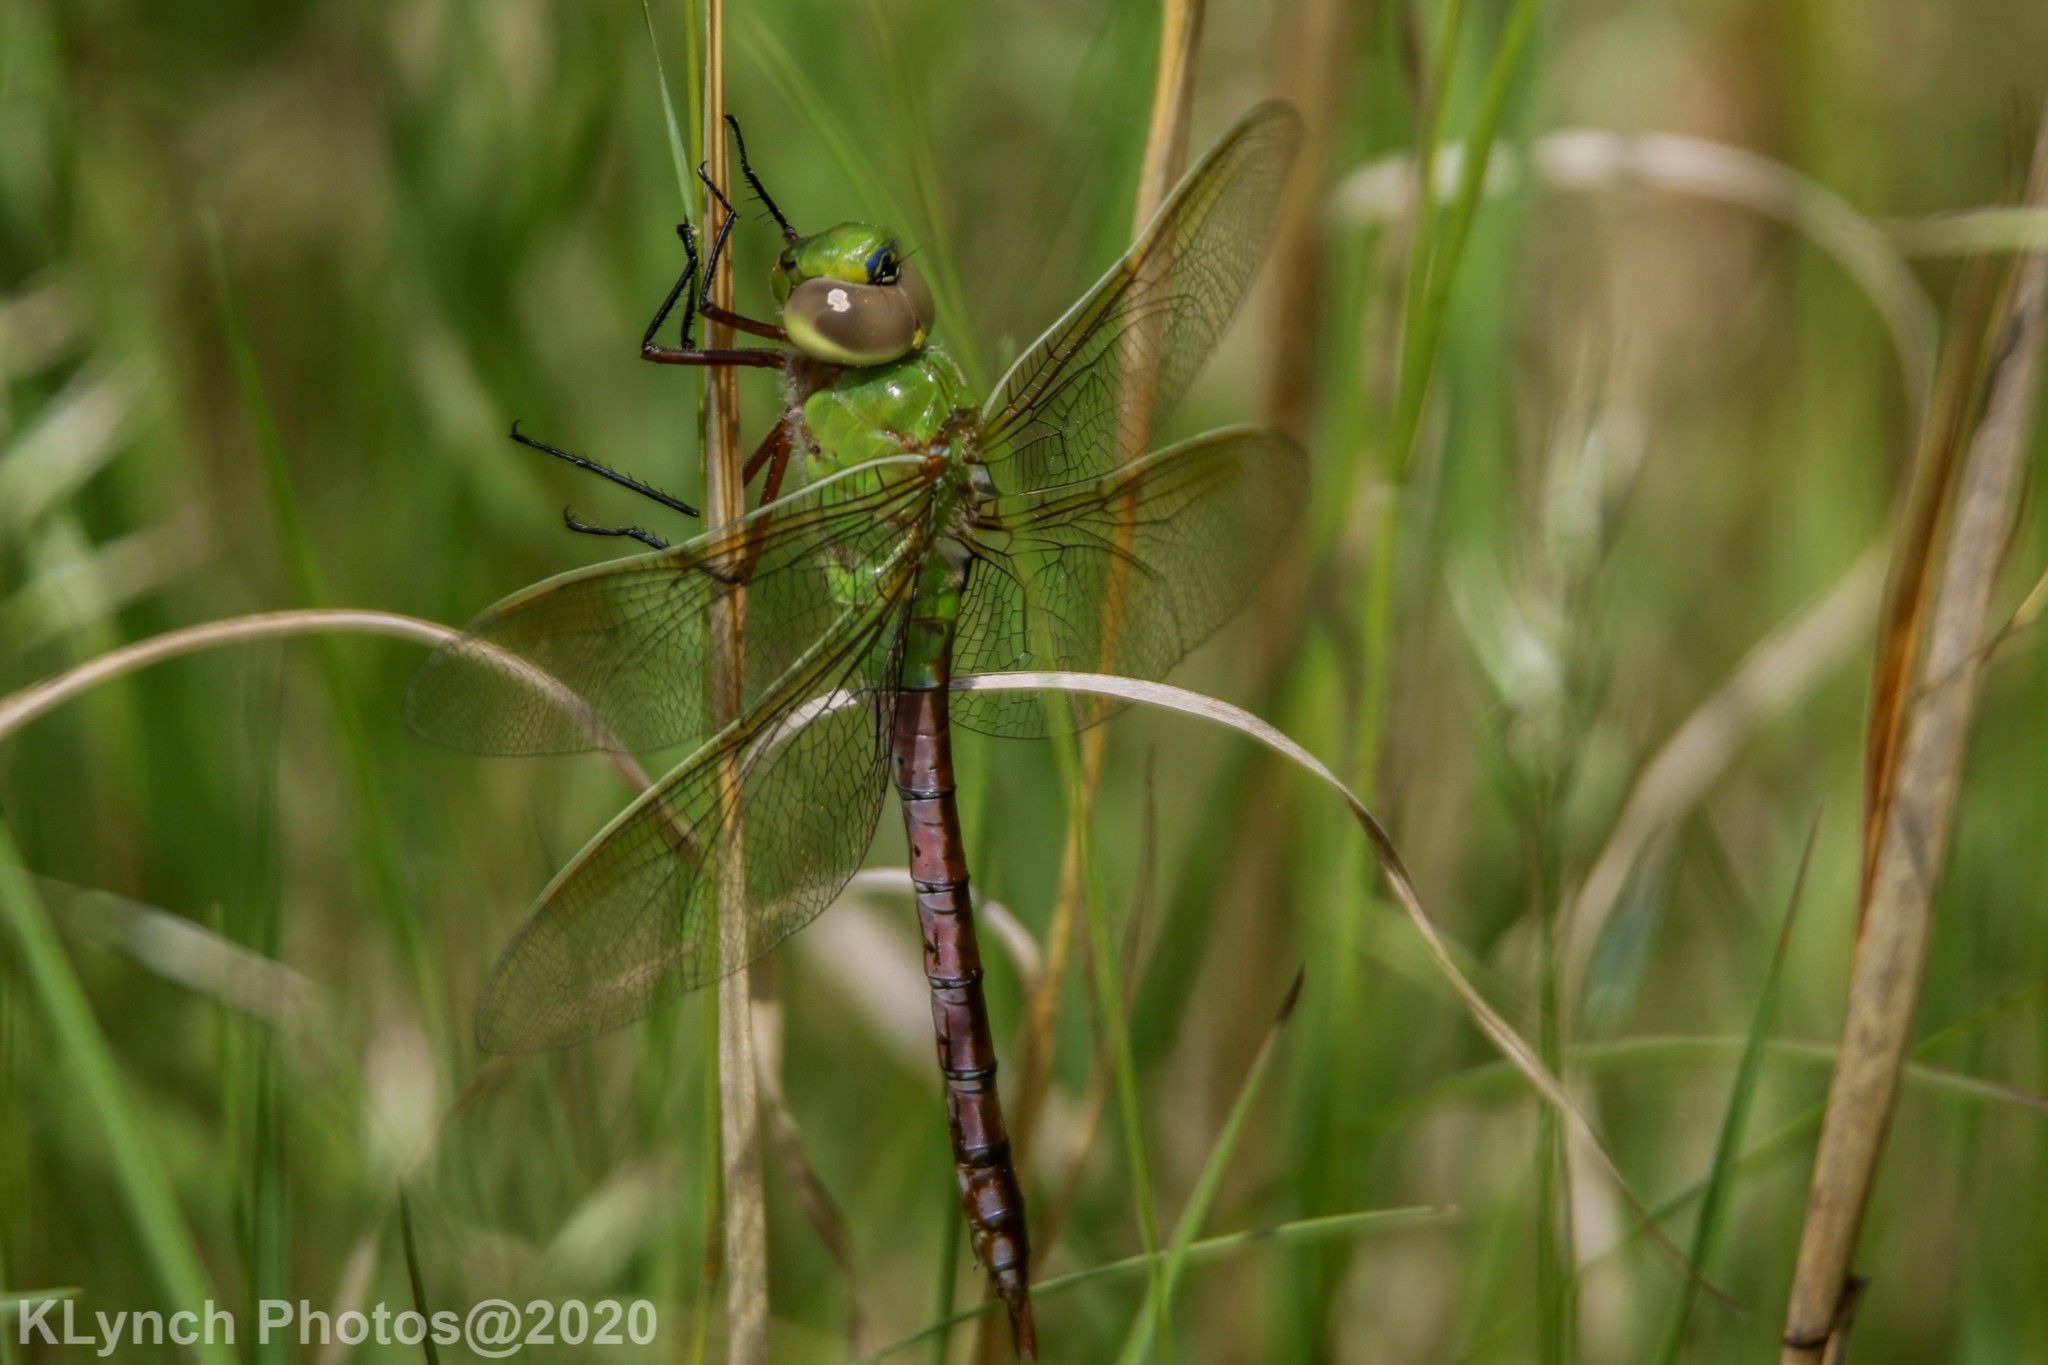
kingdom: Animalia
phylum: Arthropoda
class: Insecta
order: Odonata
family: Aeshnidae
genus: Anax
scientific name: Anax junius
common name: Common green darner
